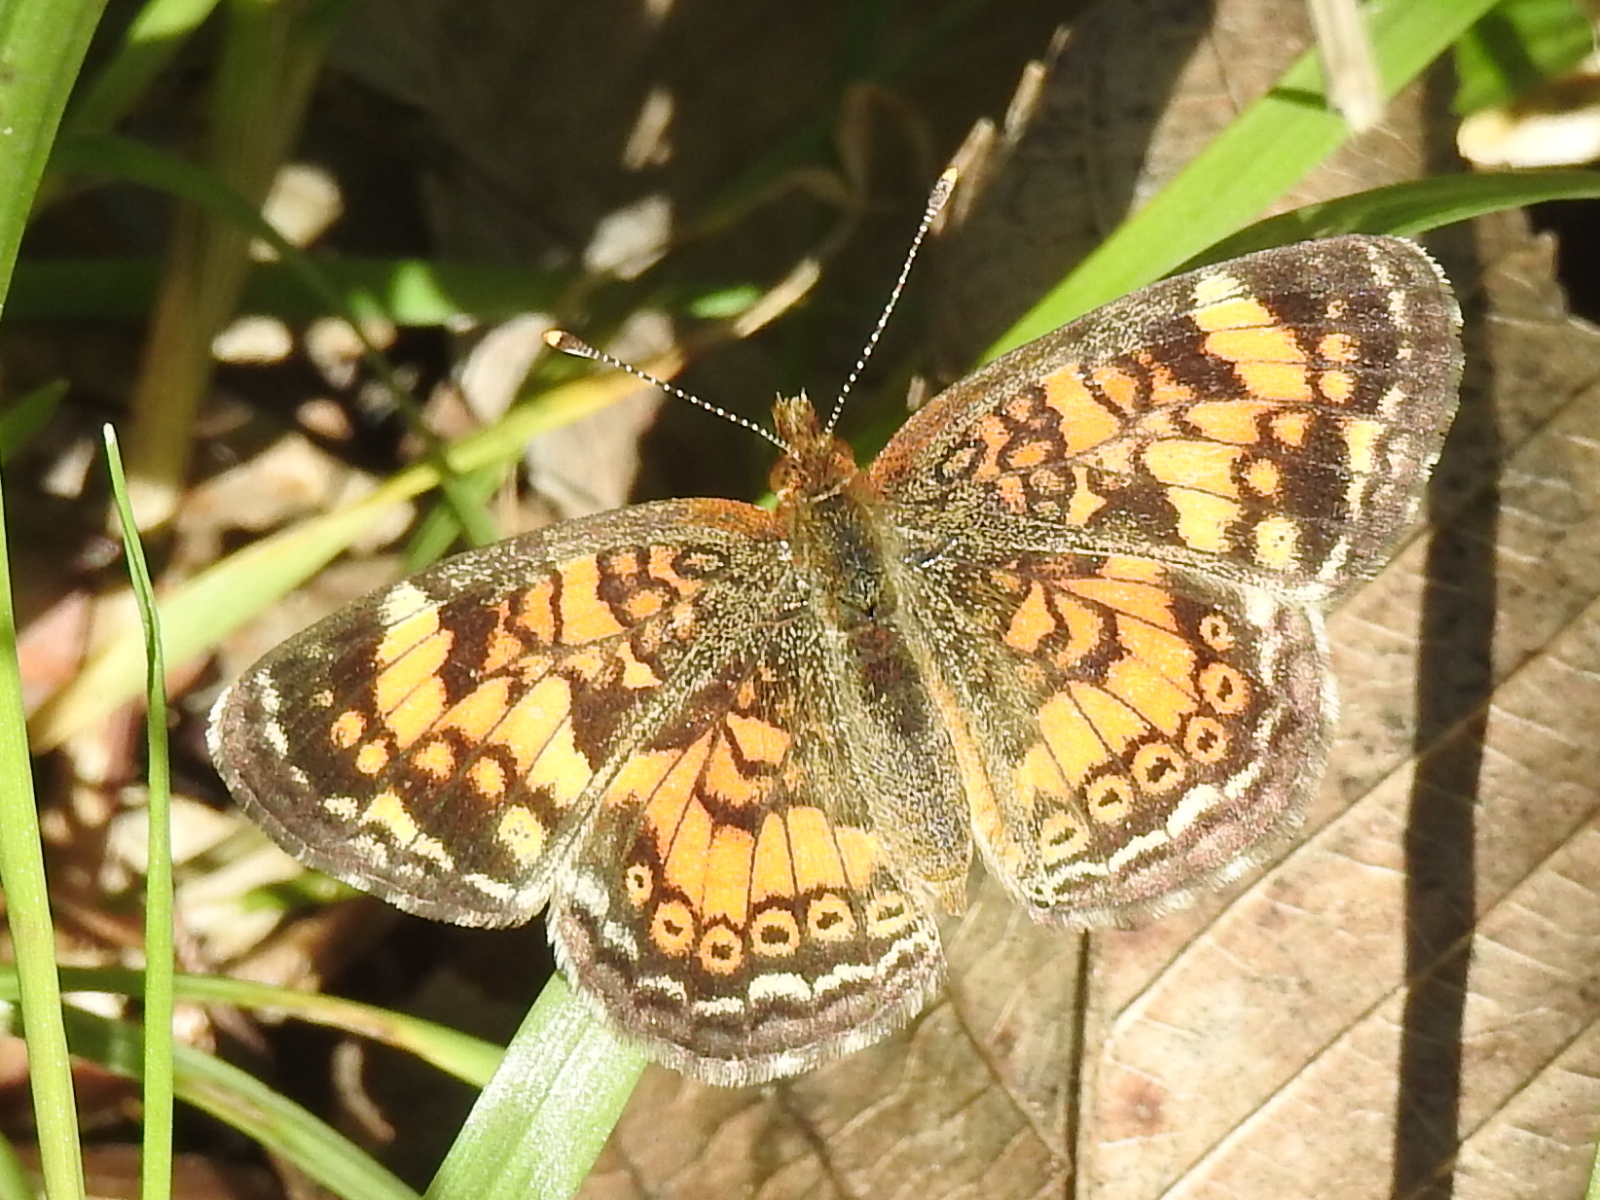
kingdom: Animalia
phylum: Arthropoda
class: Insecta
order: Lepidoptera
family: Nymphalidae
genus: Phyciodes
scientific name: Phyciodes tharos
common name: Pearl crescent
